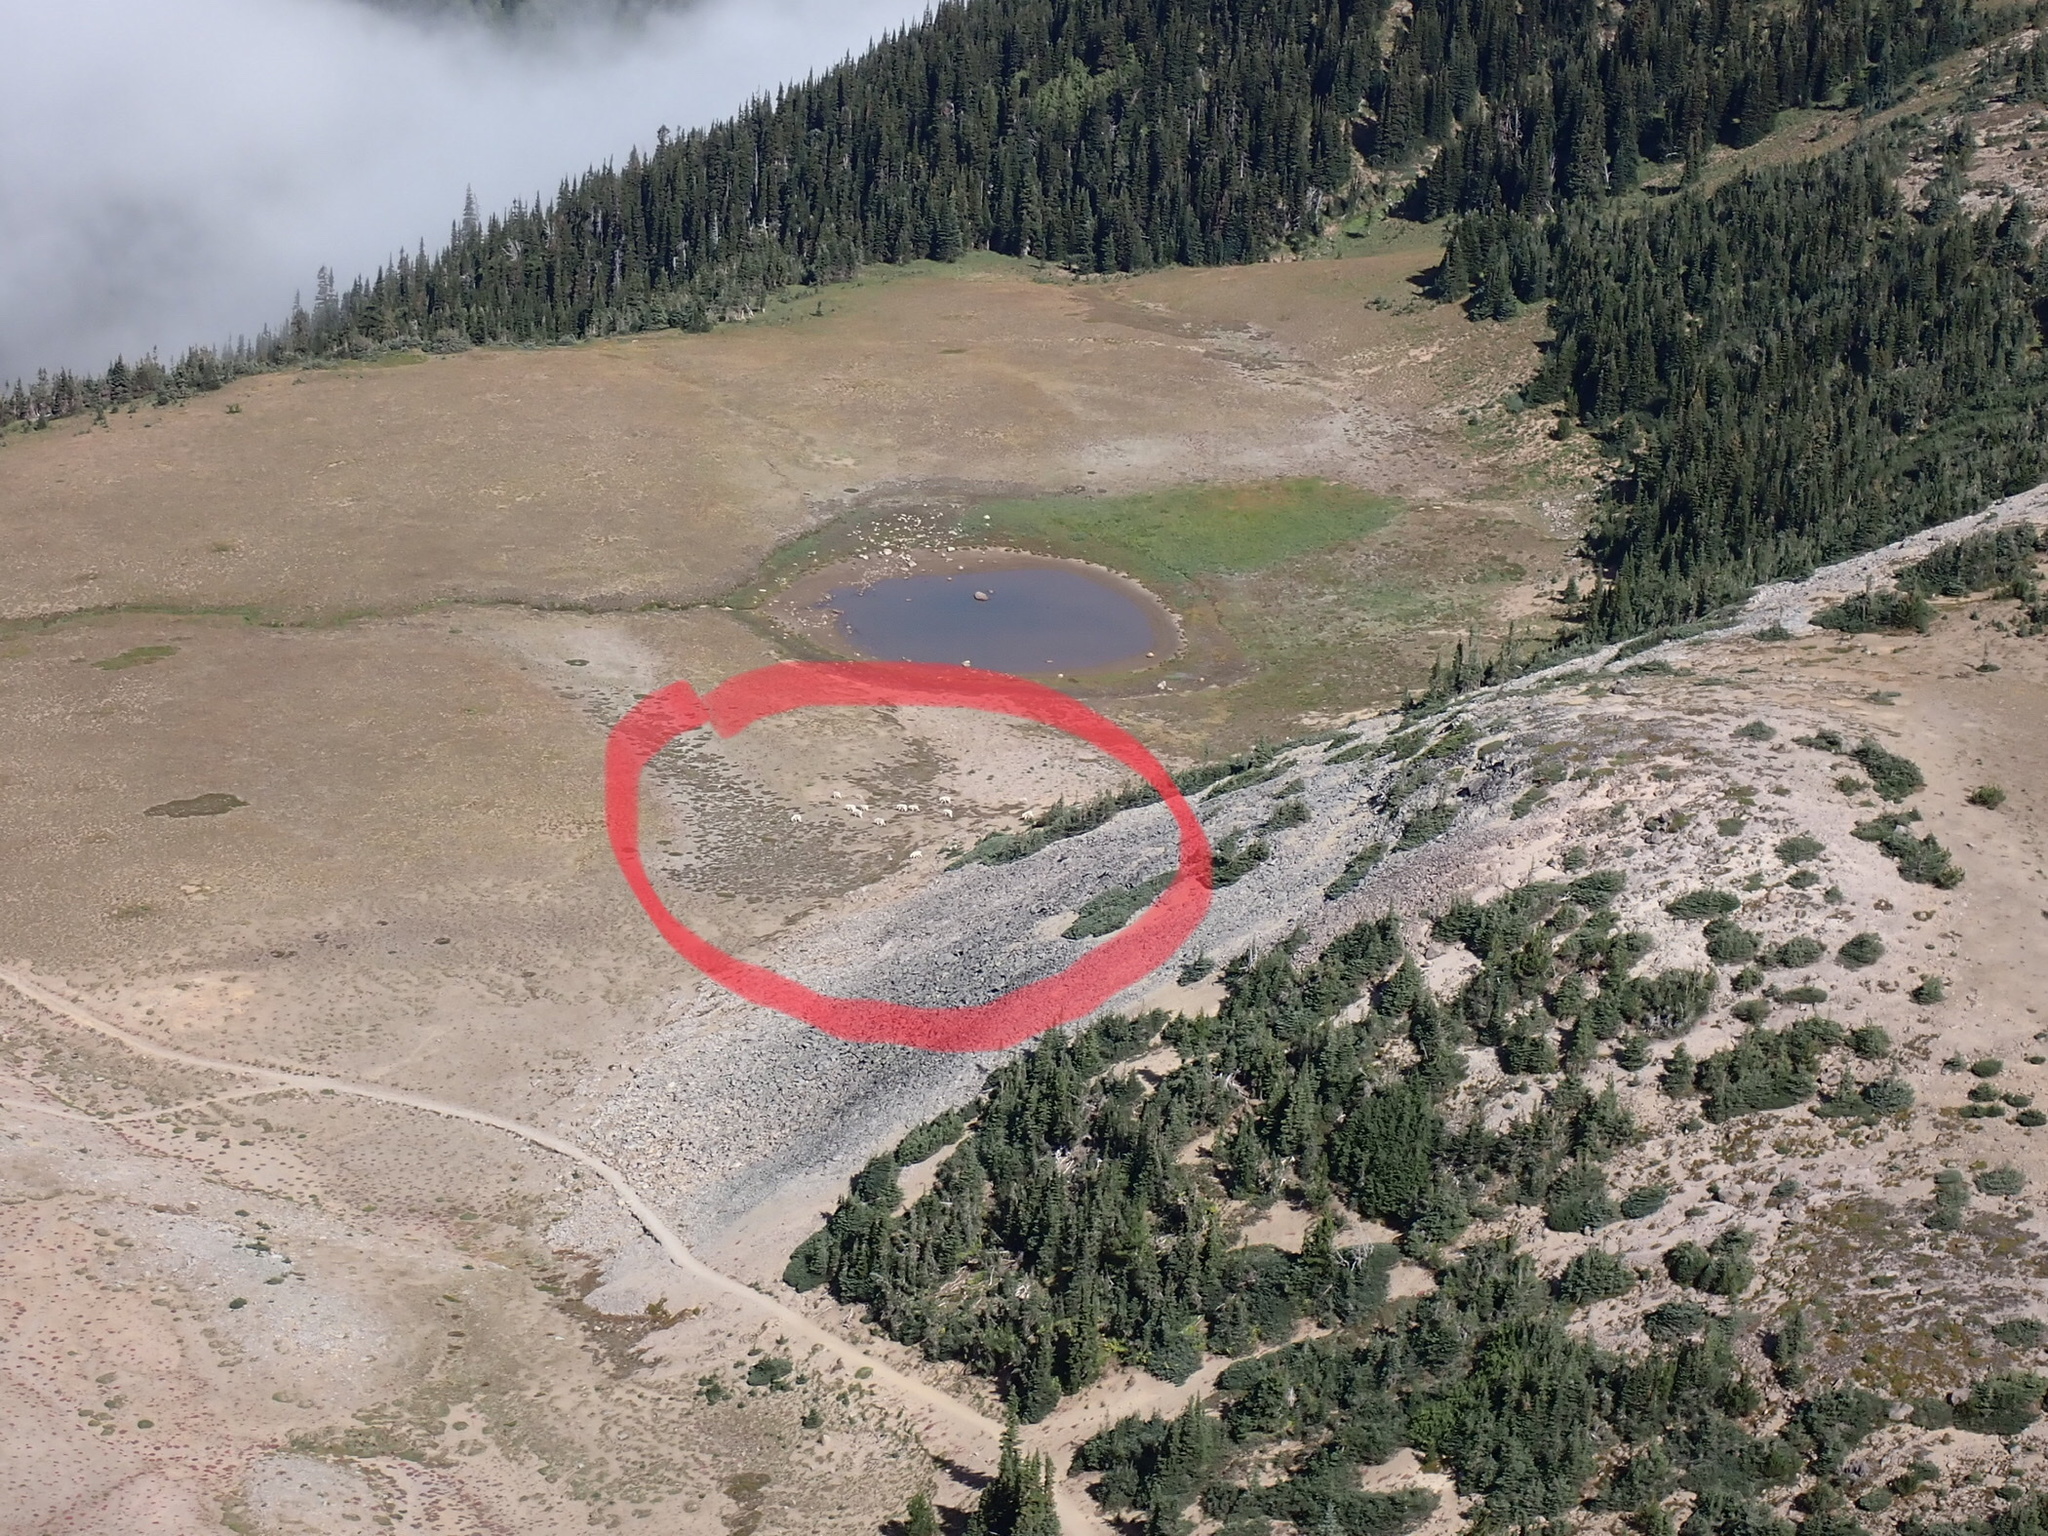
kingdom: Animalia
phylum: Chordata
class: Mammalia
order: Artiodactyla
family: Bovidae
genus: Oreamnos
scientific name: Oreamnos americanus
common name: Mountain goat
